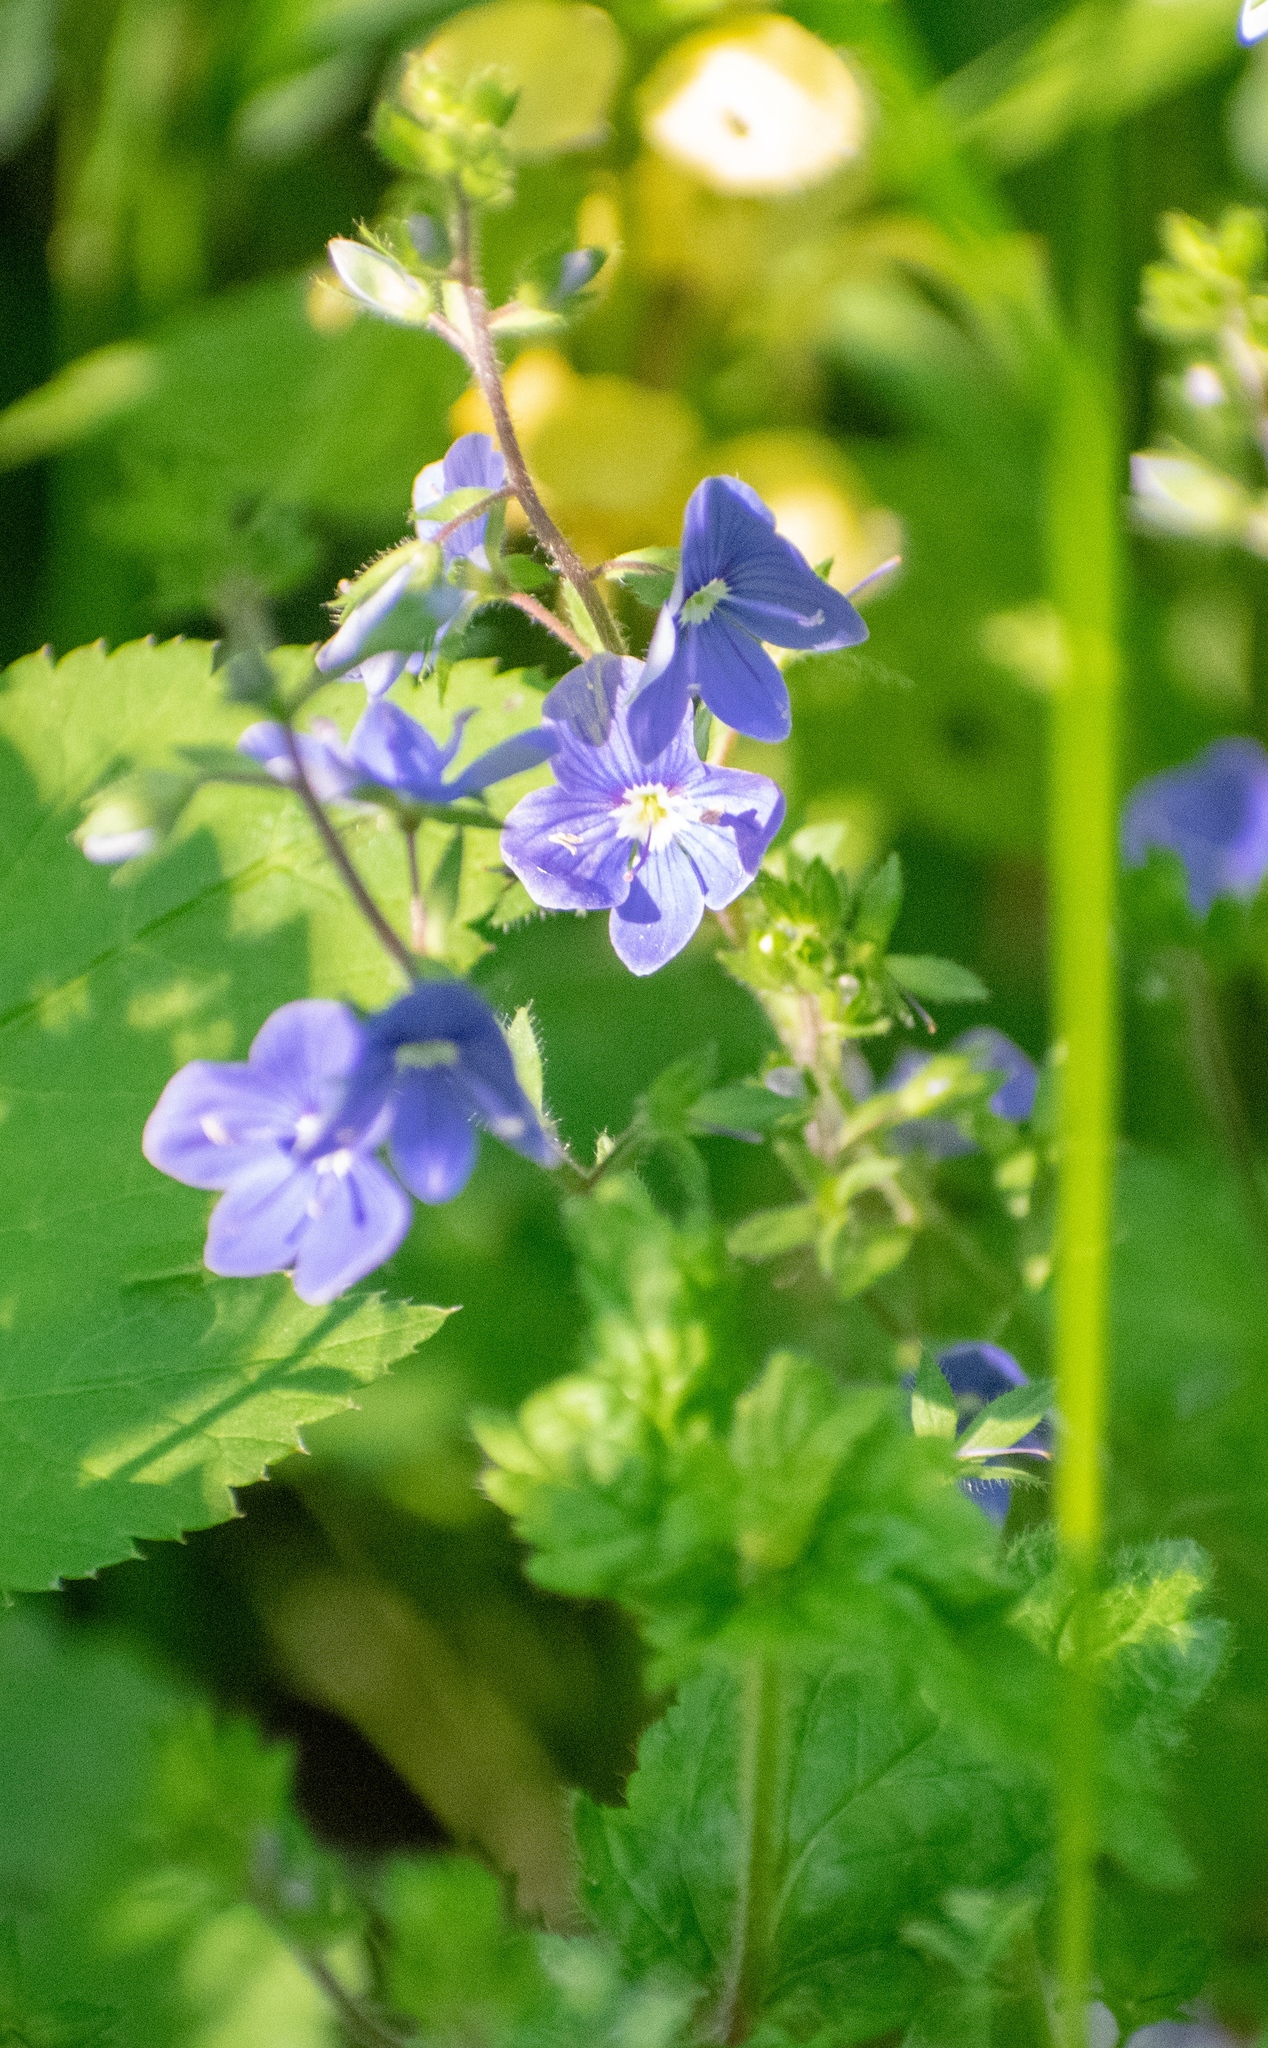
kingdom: Plantae
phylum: Tracheophyta
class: Magnoliopsida
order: Lamiales
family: Plantaginaceae
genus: Veronica
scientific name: Veronica chamaedrys
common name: Germander speedwell
